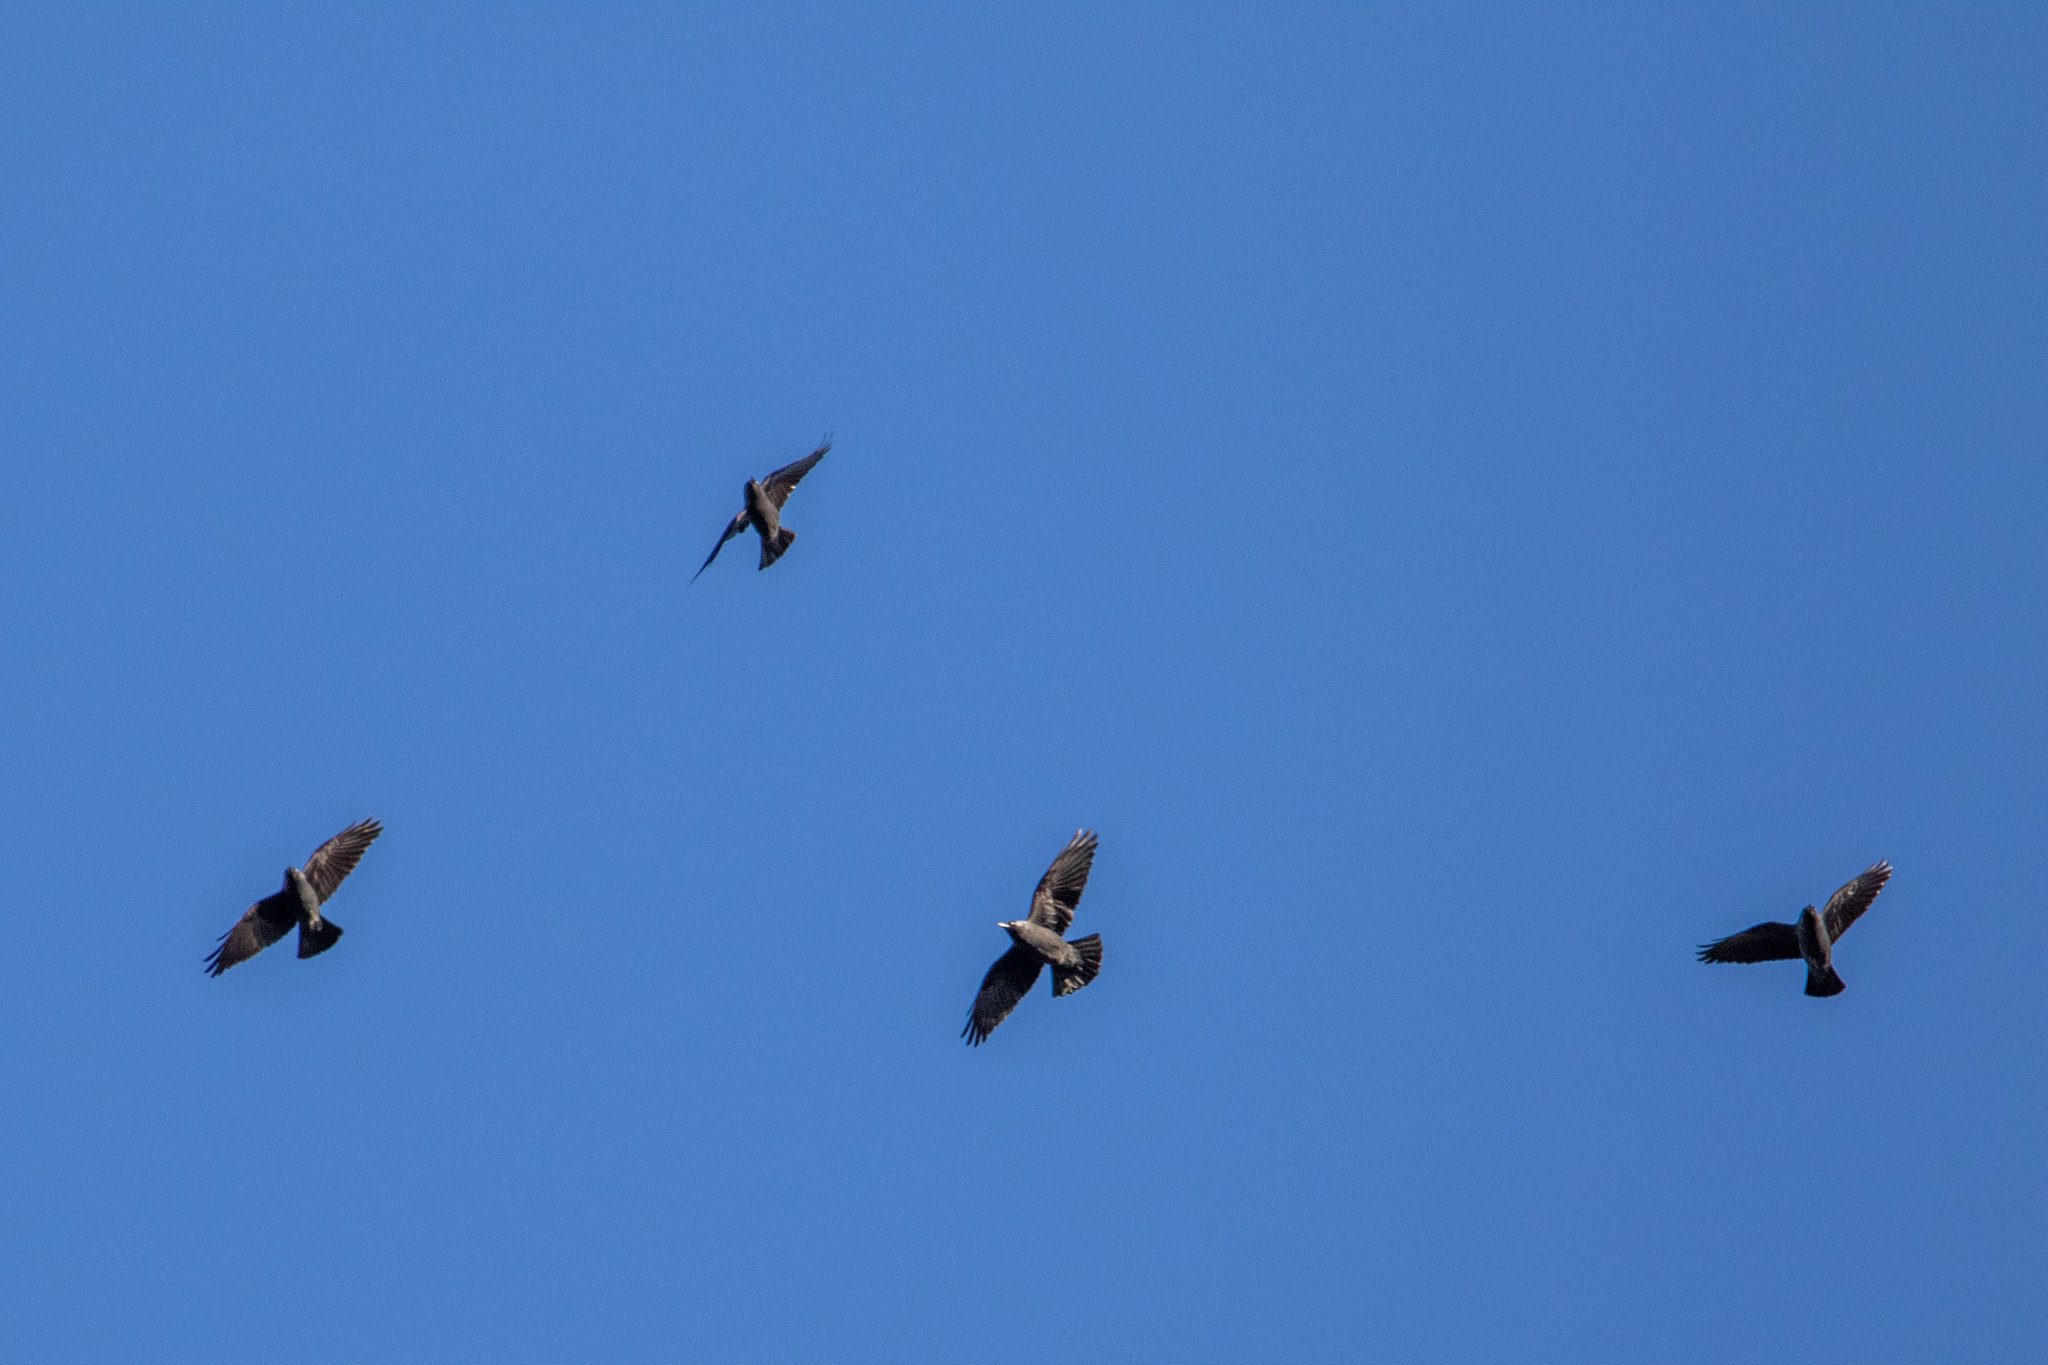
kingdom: Animalia
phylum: Chordata
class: Aves
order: Passeriformes
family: Corvidae
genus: Coloeus
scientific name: Coloeus monedula
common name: Western jackdaw
